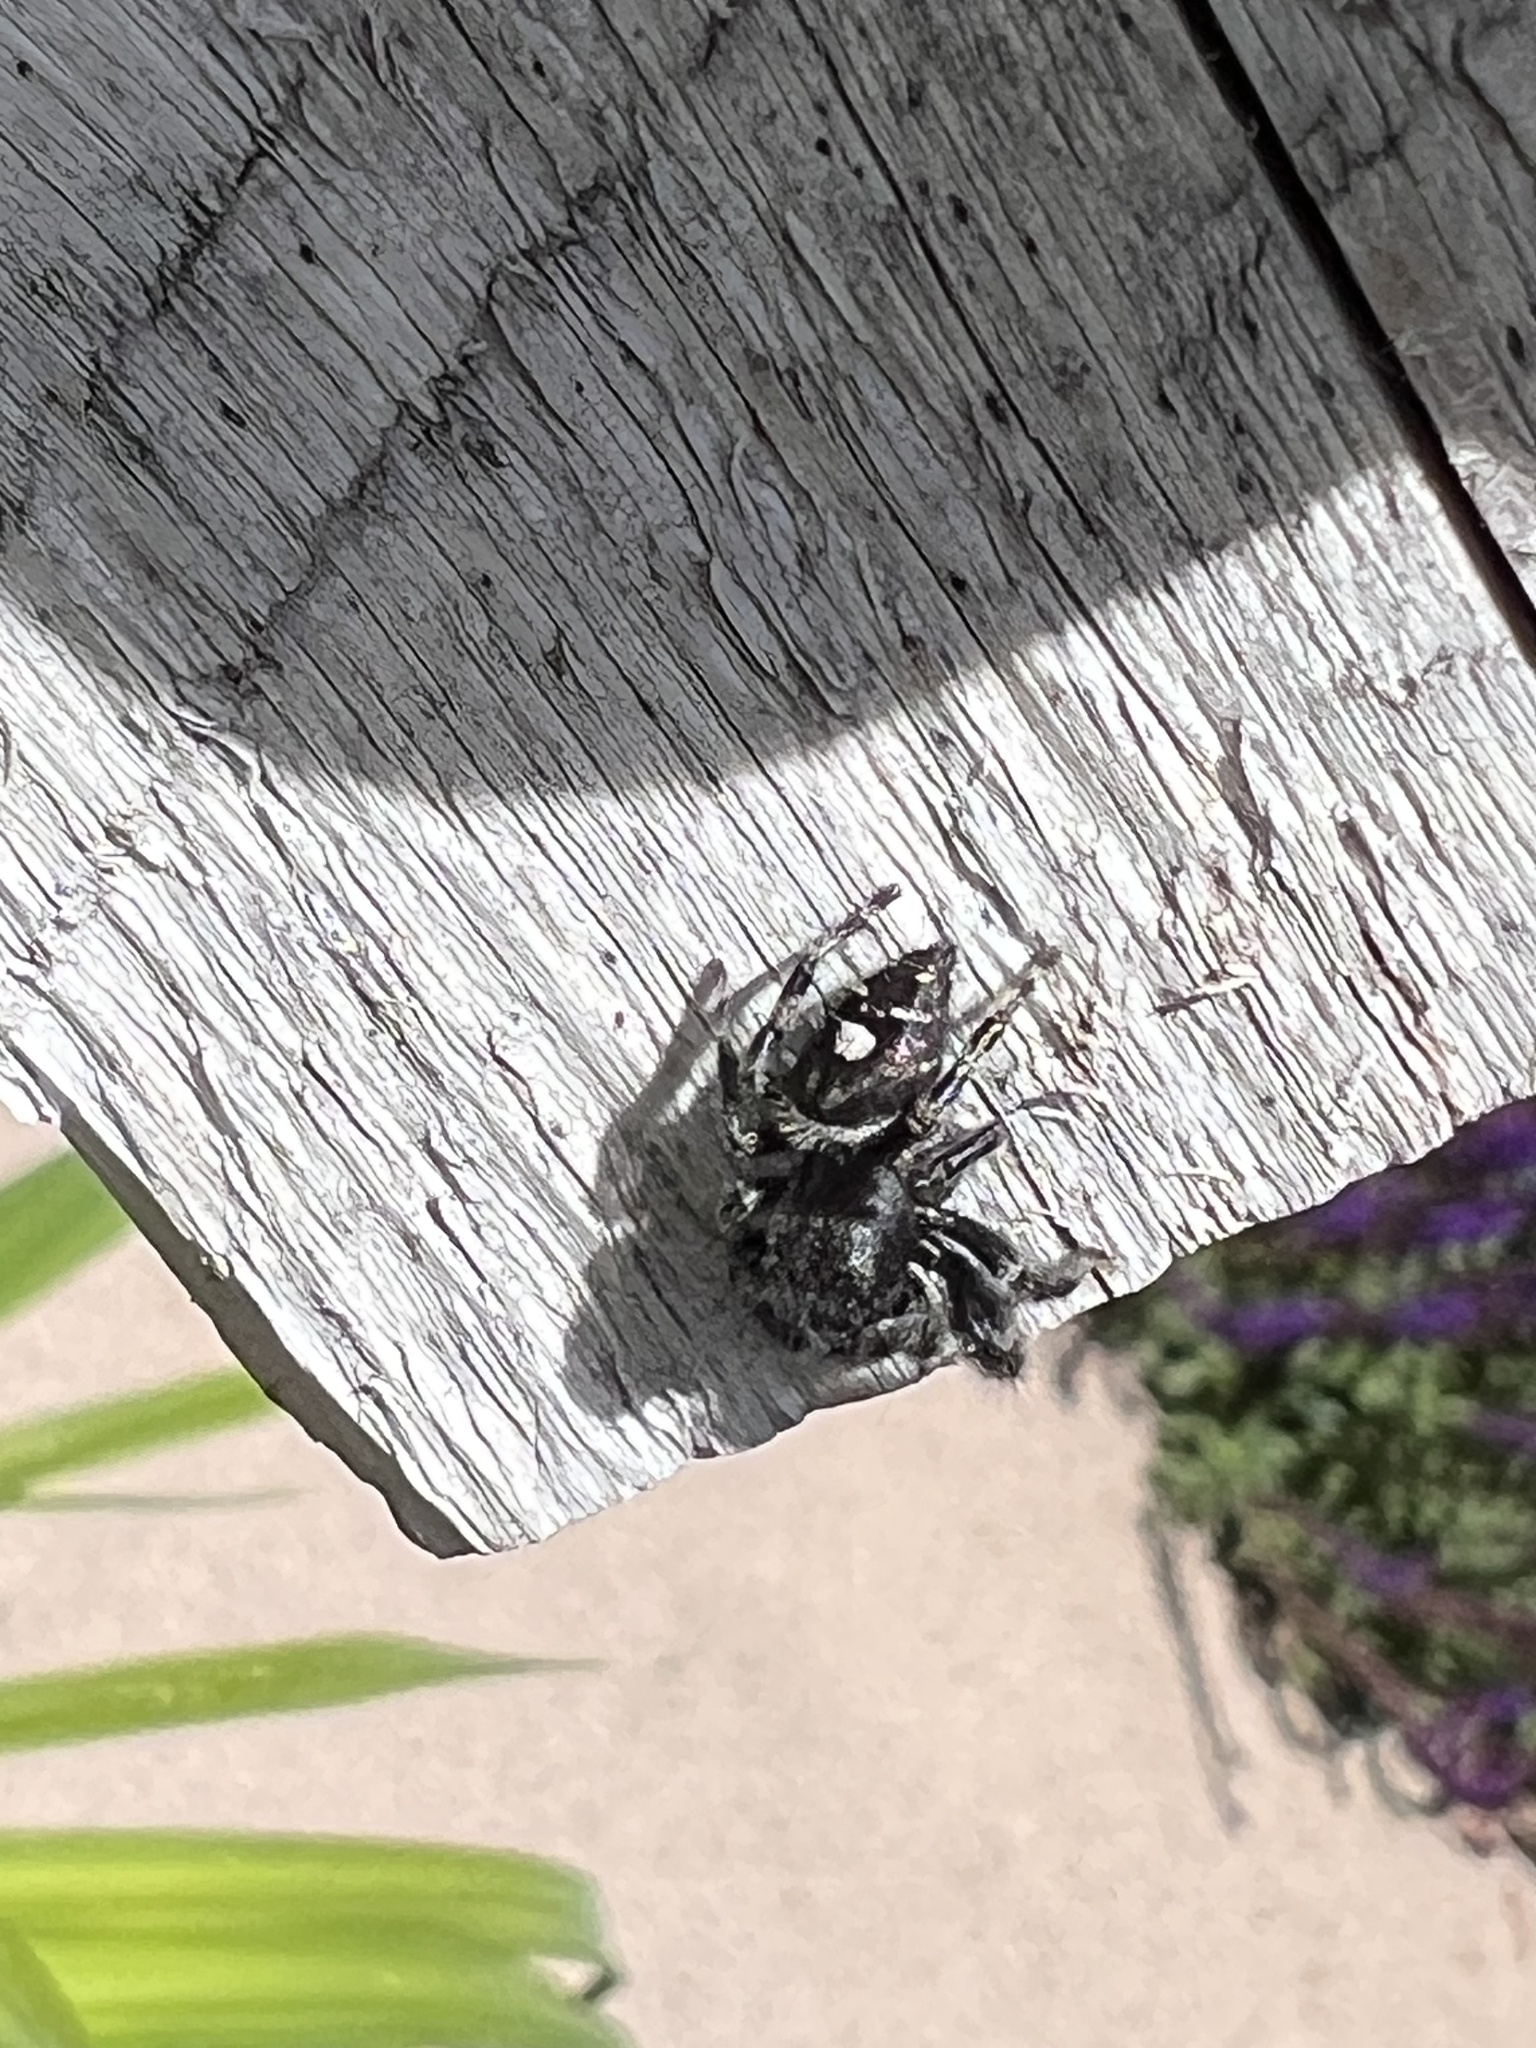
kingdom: Animalia
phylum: Arthropoda
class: Arachnida
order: Araneae
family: Salticidae
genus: Phidippus
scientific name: Phidippus audax
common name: Bold jumper
